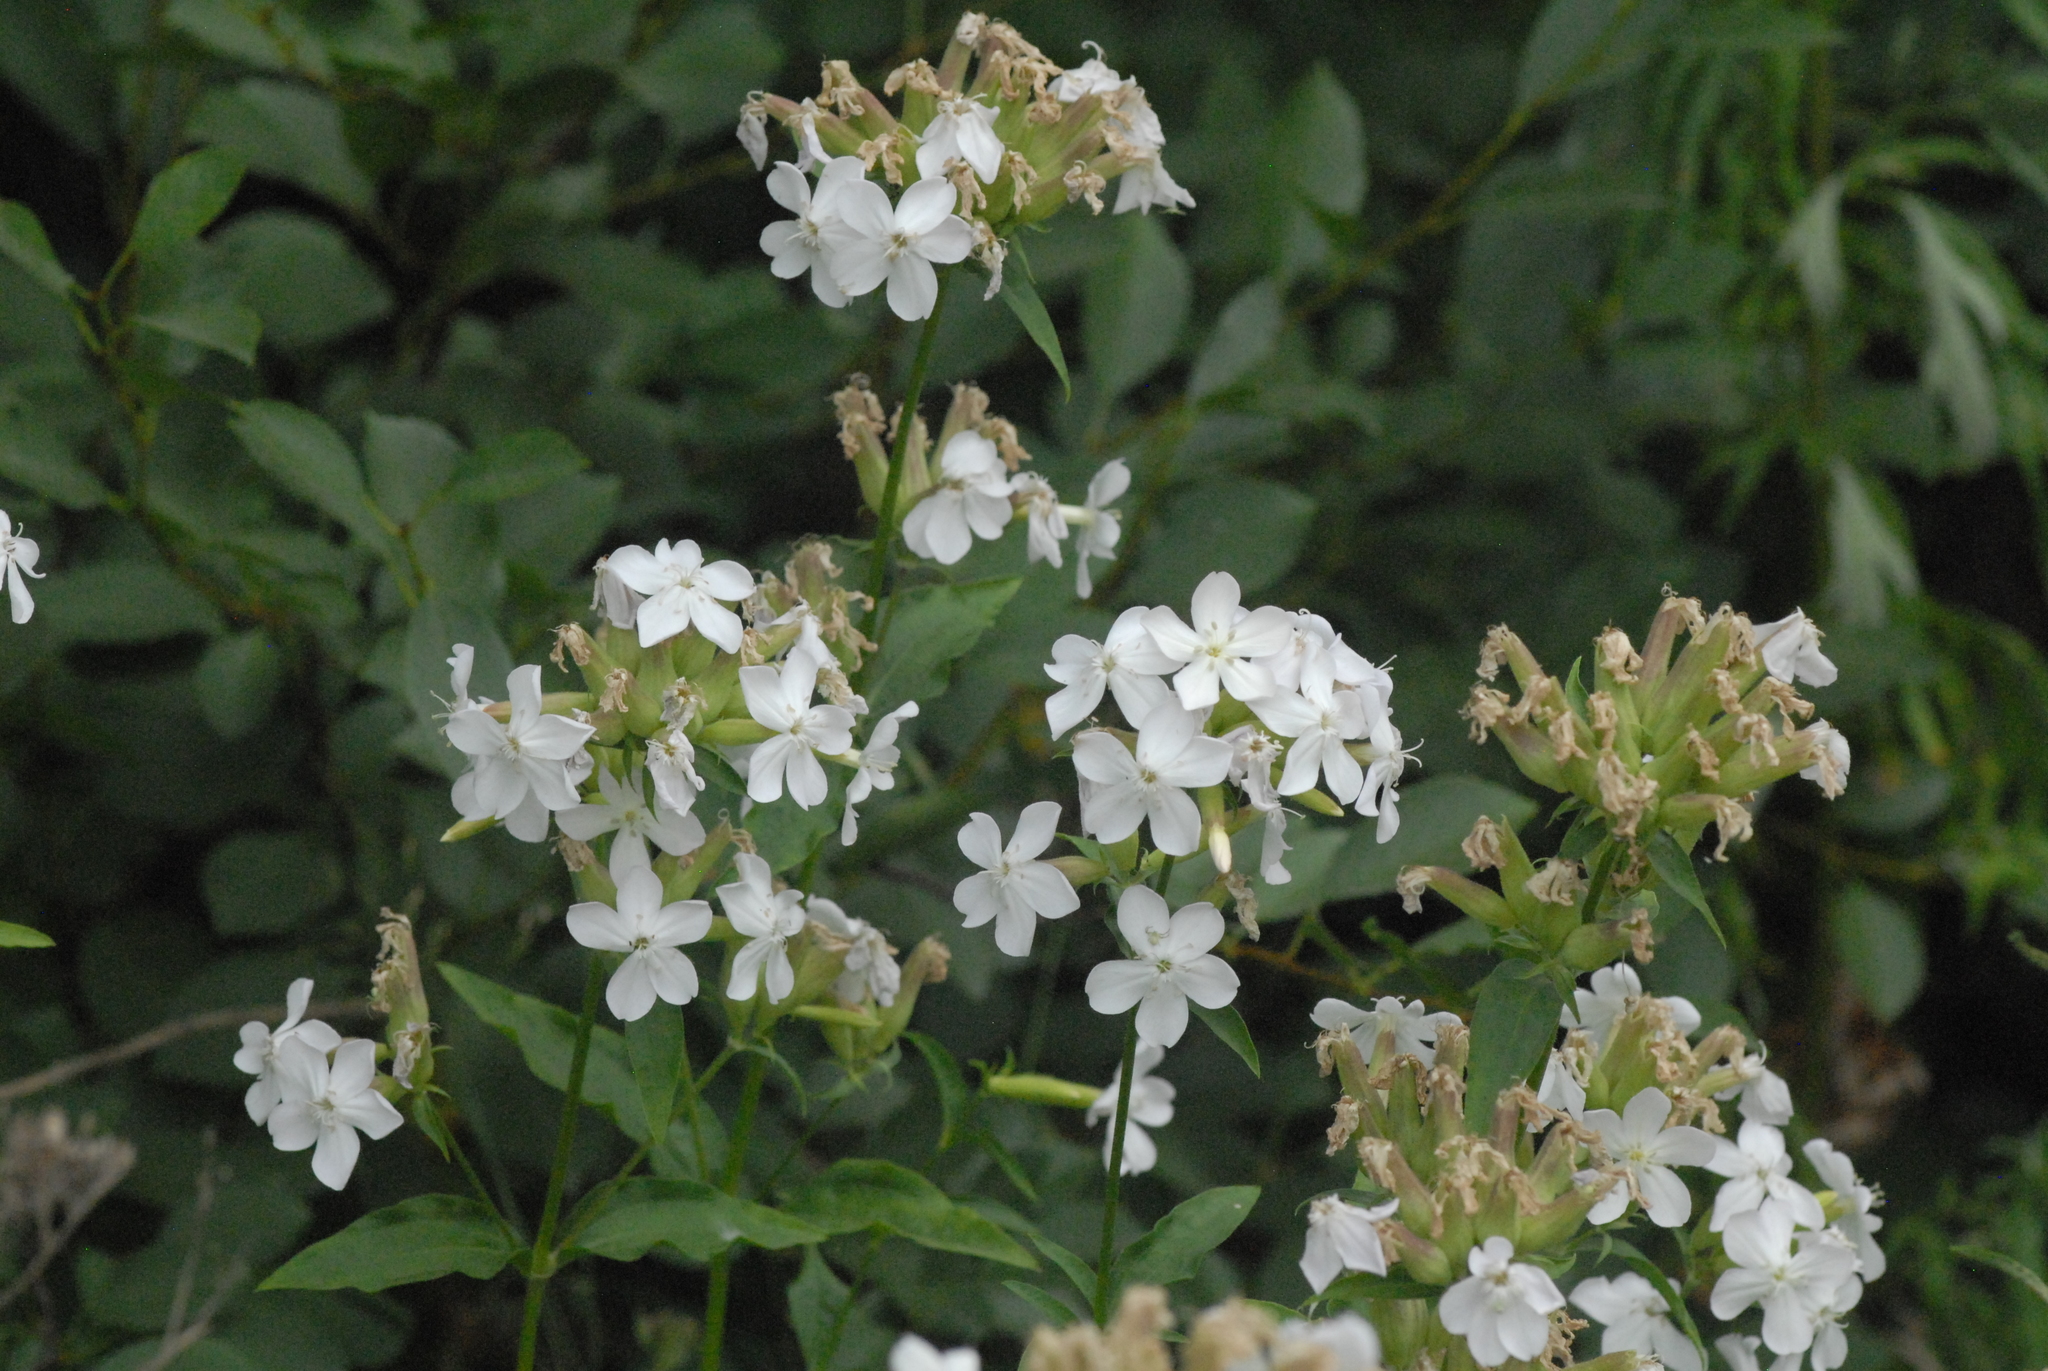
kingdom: Plantae
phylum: Tracheophyta
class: Magnoliopsida
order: Caryophyllales
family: Caryophyllaceae
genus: Saponaria
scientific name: Saponaria officinalis
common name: Soapwort
